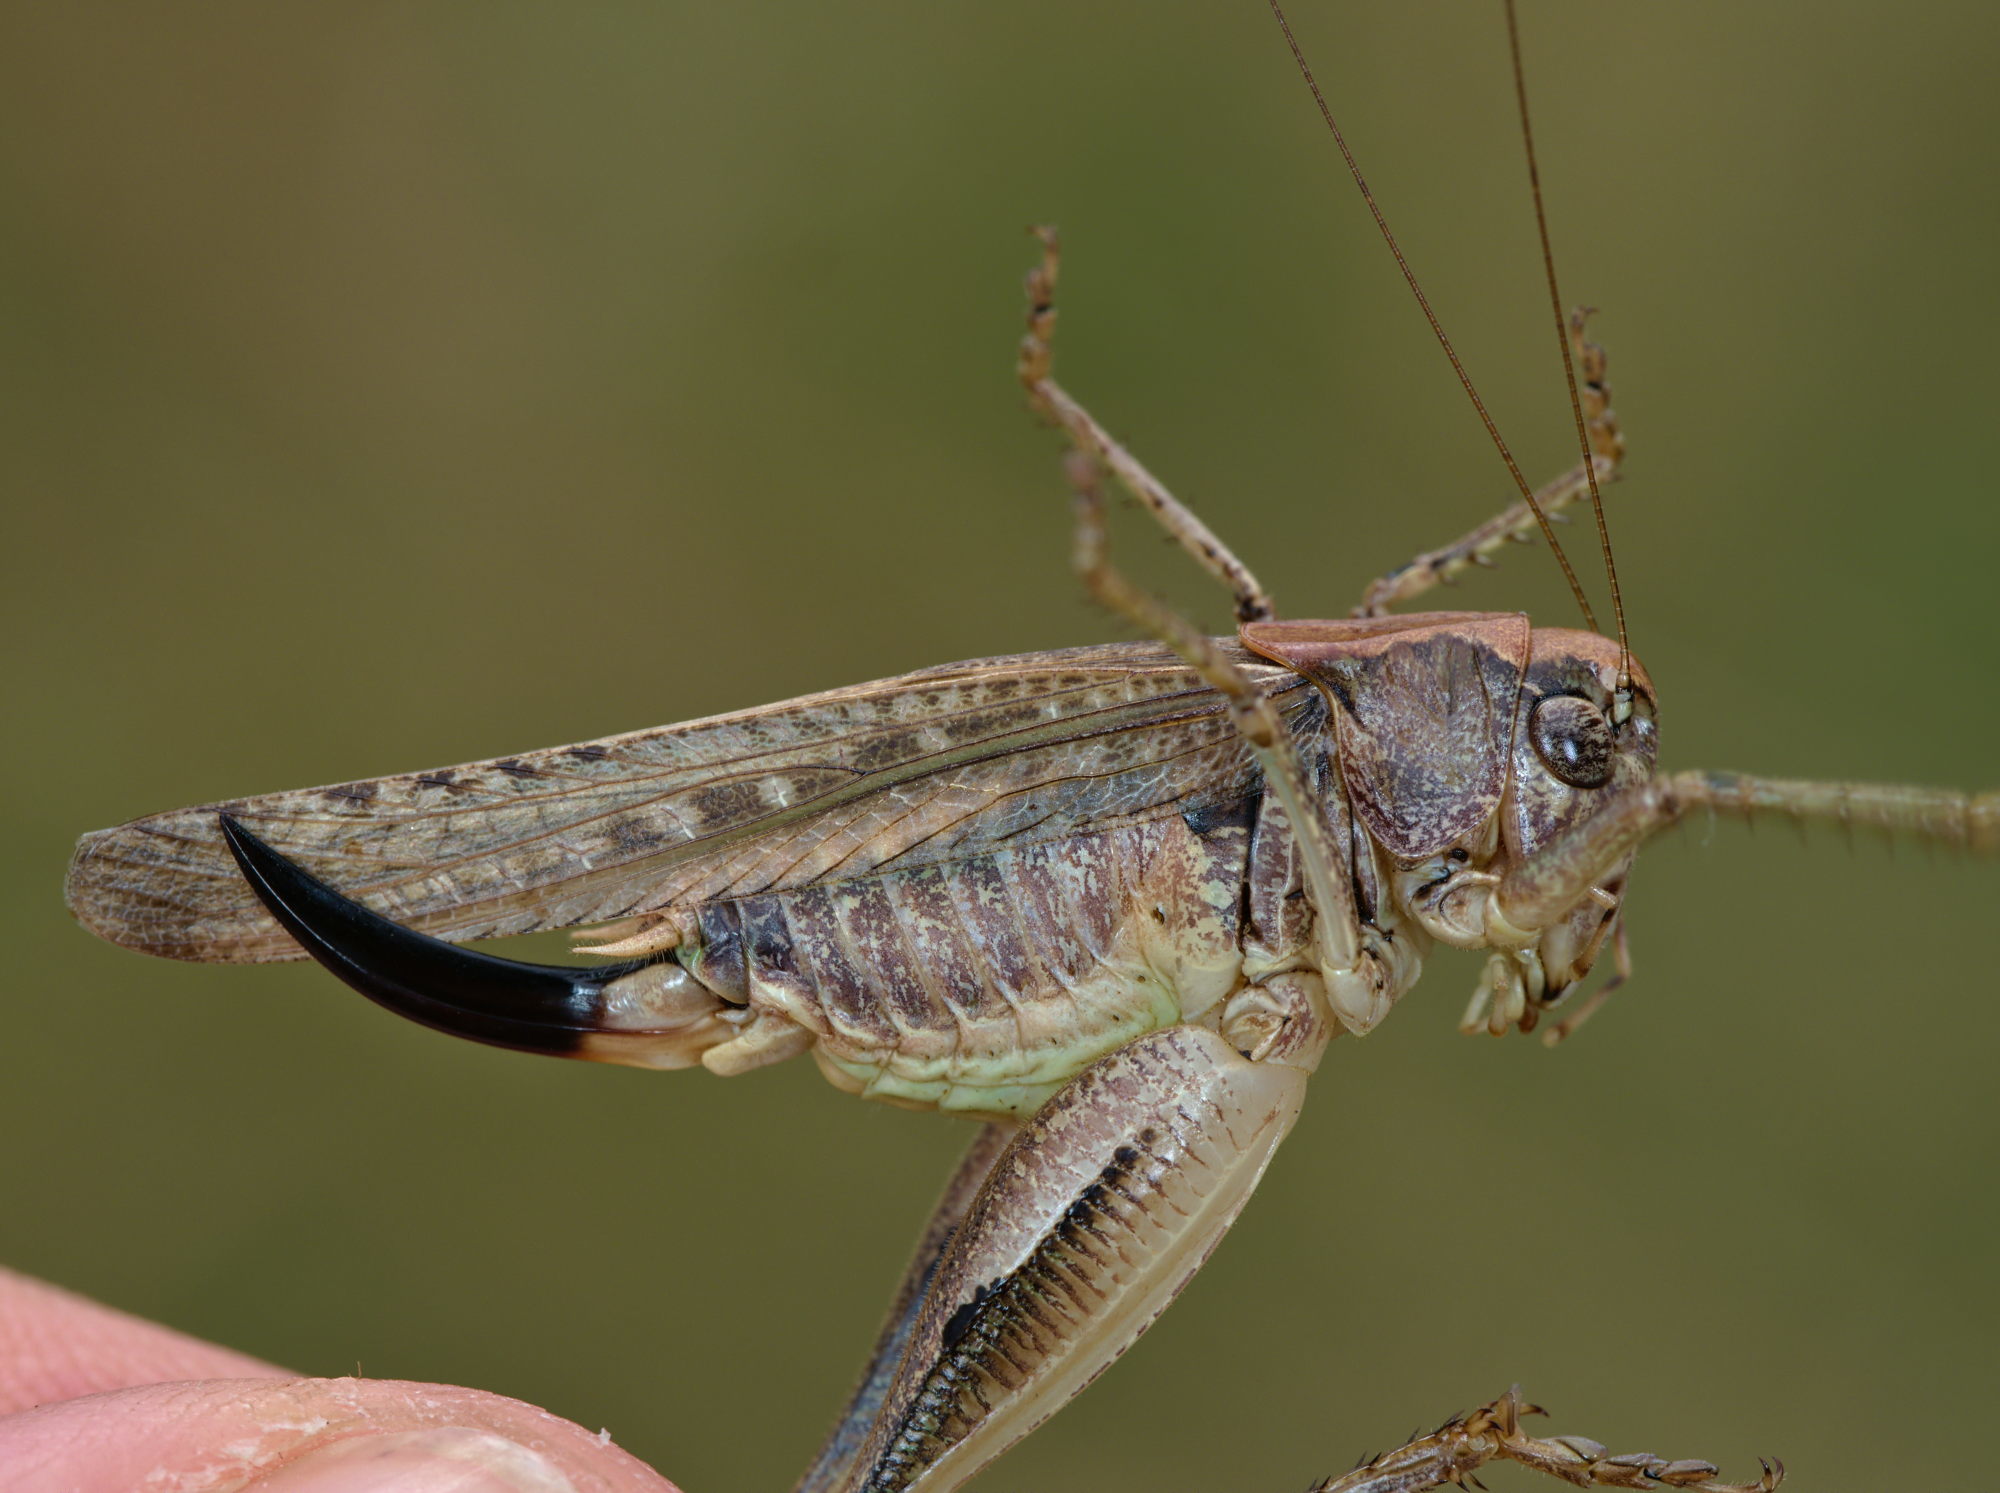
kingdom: Animalia
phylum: Arthropoda
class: Insecta
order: Orthoptera
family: Tettigoniidae
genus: Platycleis
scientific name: Platycleis albopunctata
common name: Grey bush-cricket
